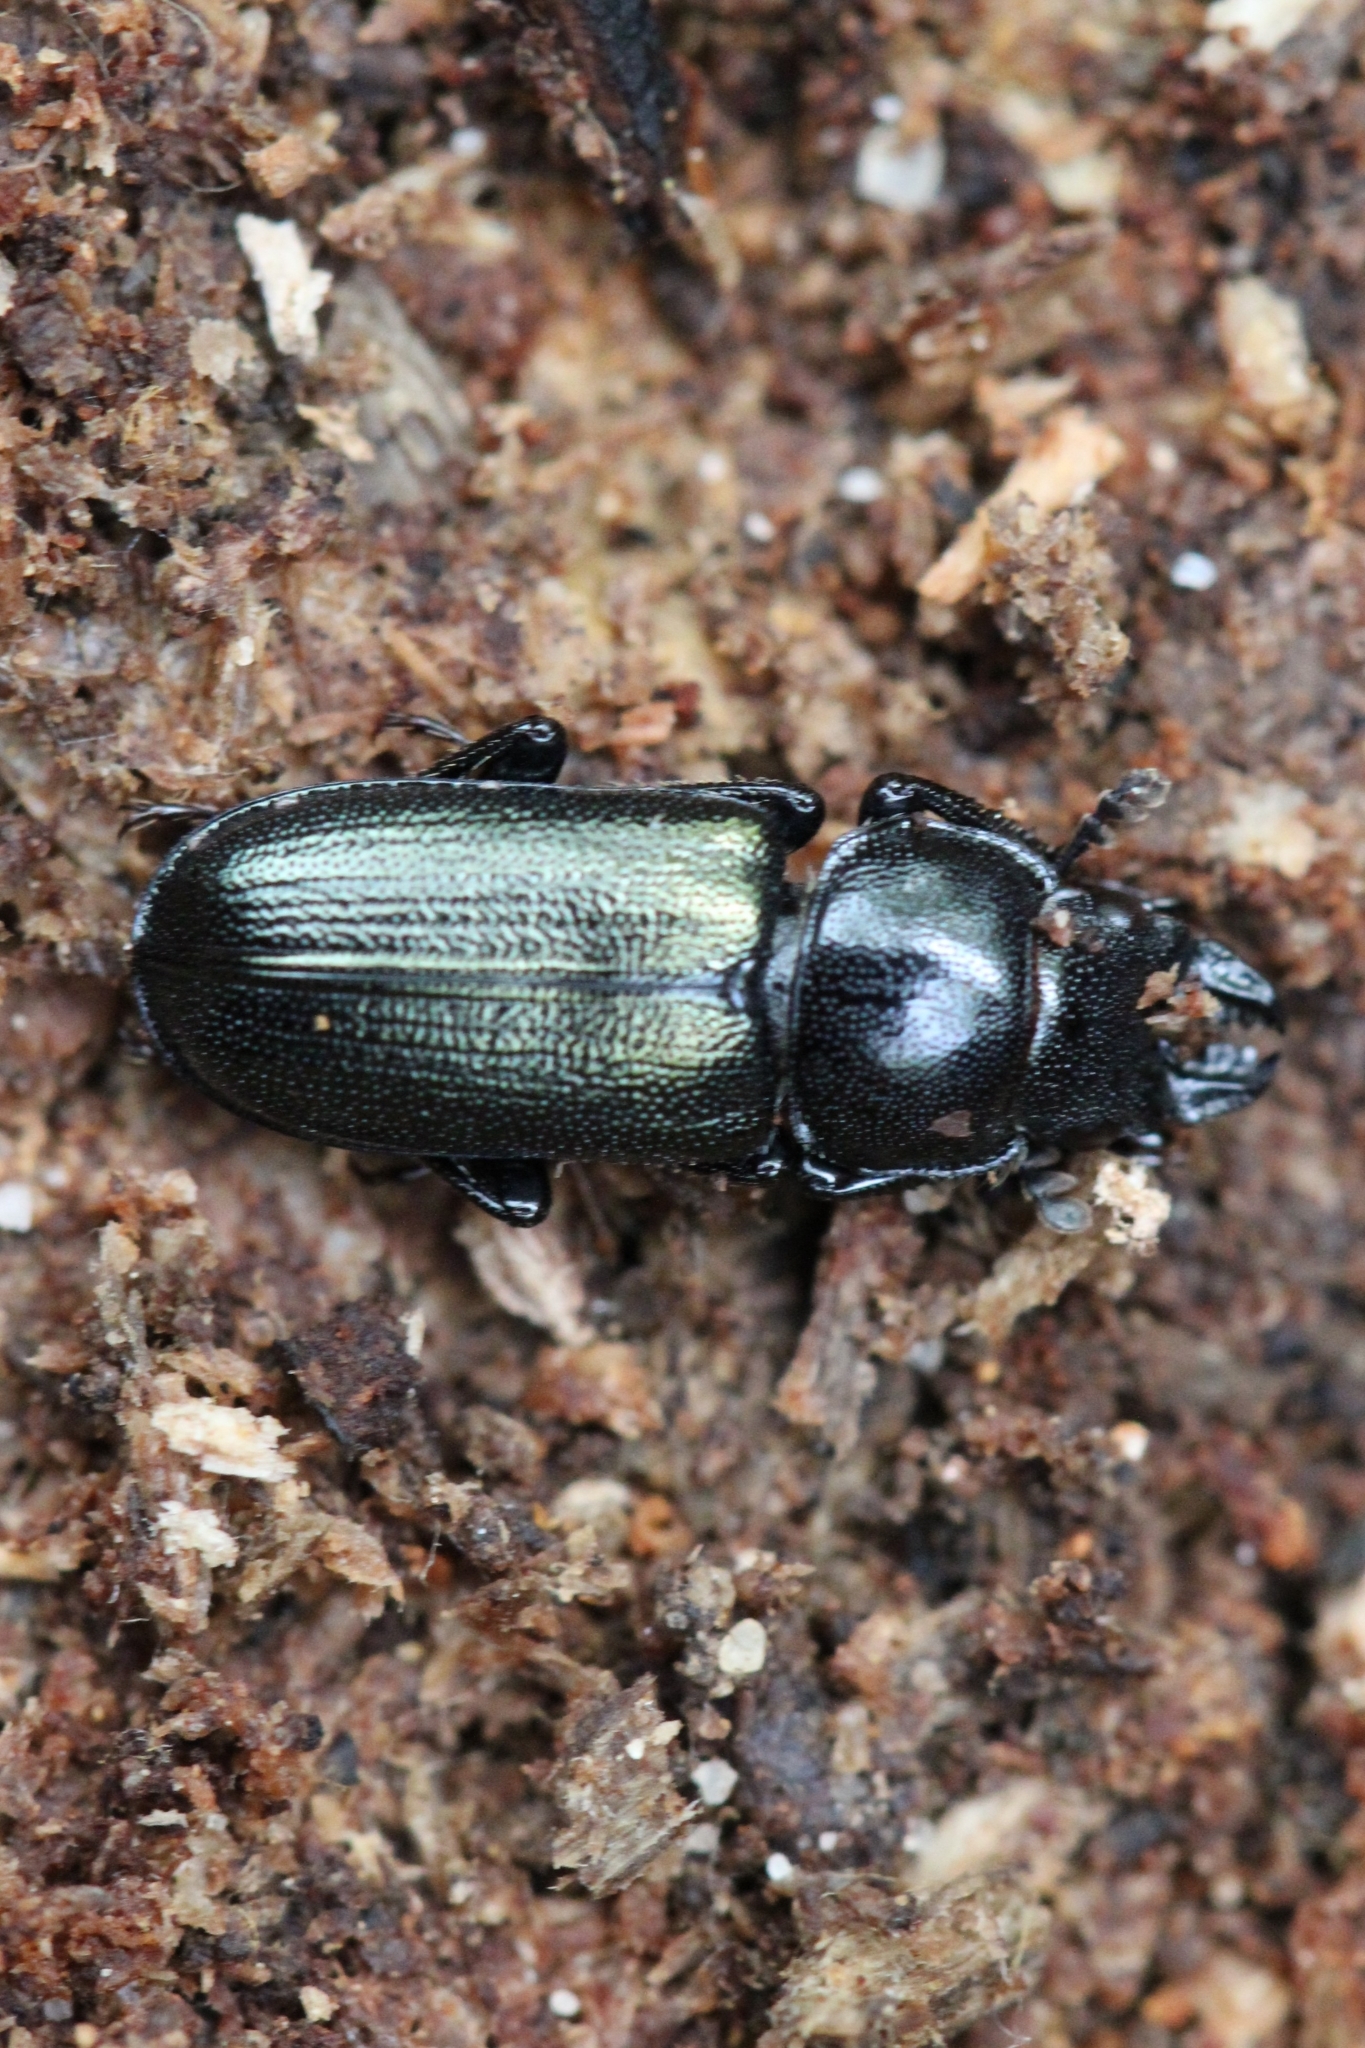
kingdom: Animalia
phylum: Arthropoda
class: Insecta
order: Coleoptera
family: Lucanidae
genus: Platycerus
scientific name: Platycerus quercus
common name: Oak stag beetle
